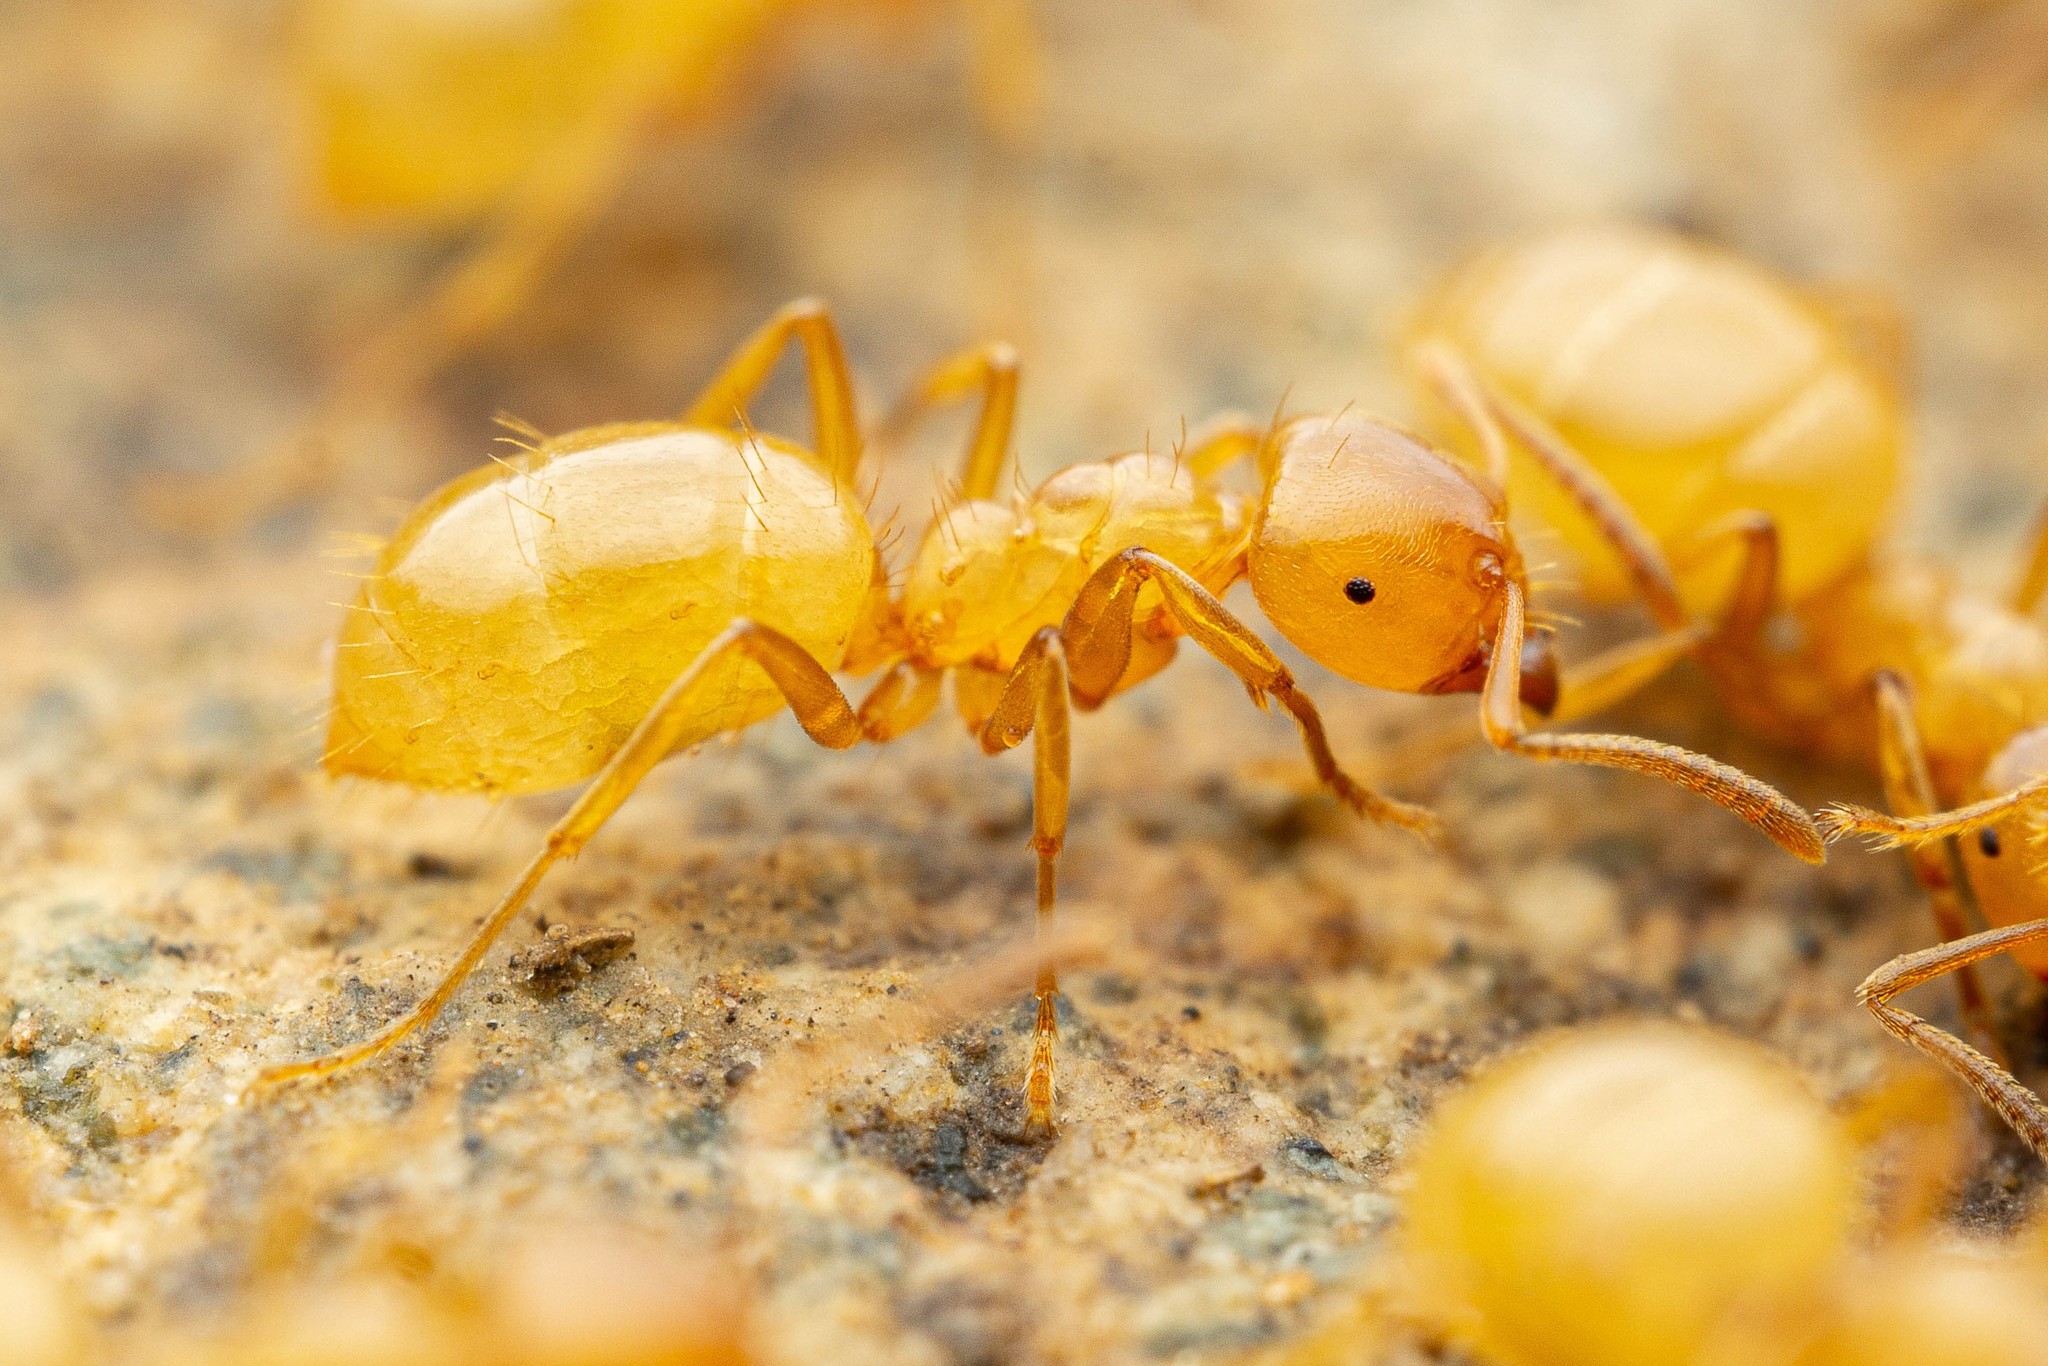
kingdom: Animalia
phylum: Arthropoda
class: Insecta
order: Hymenoptera
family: Formicidae
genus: Lasius
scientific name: Lasius arizonicus
